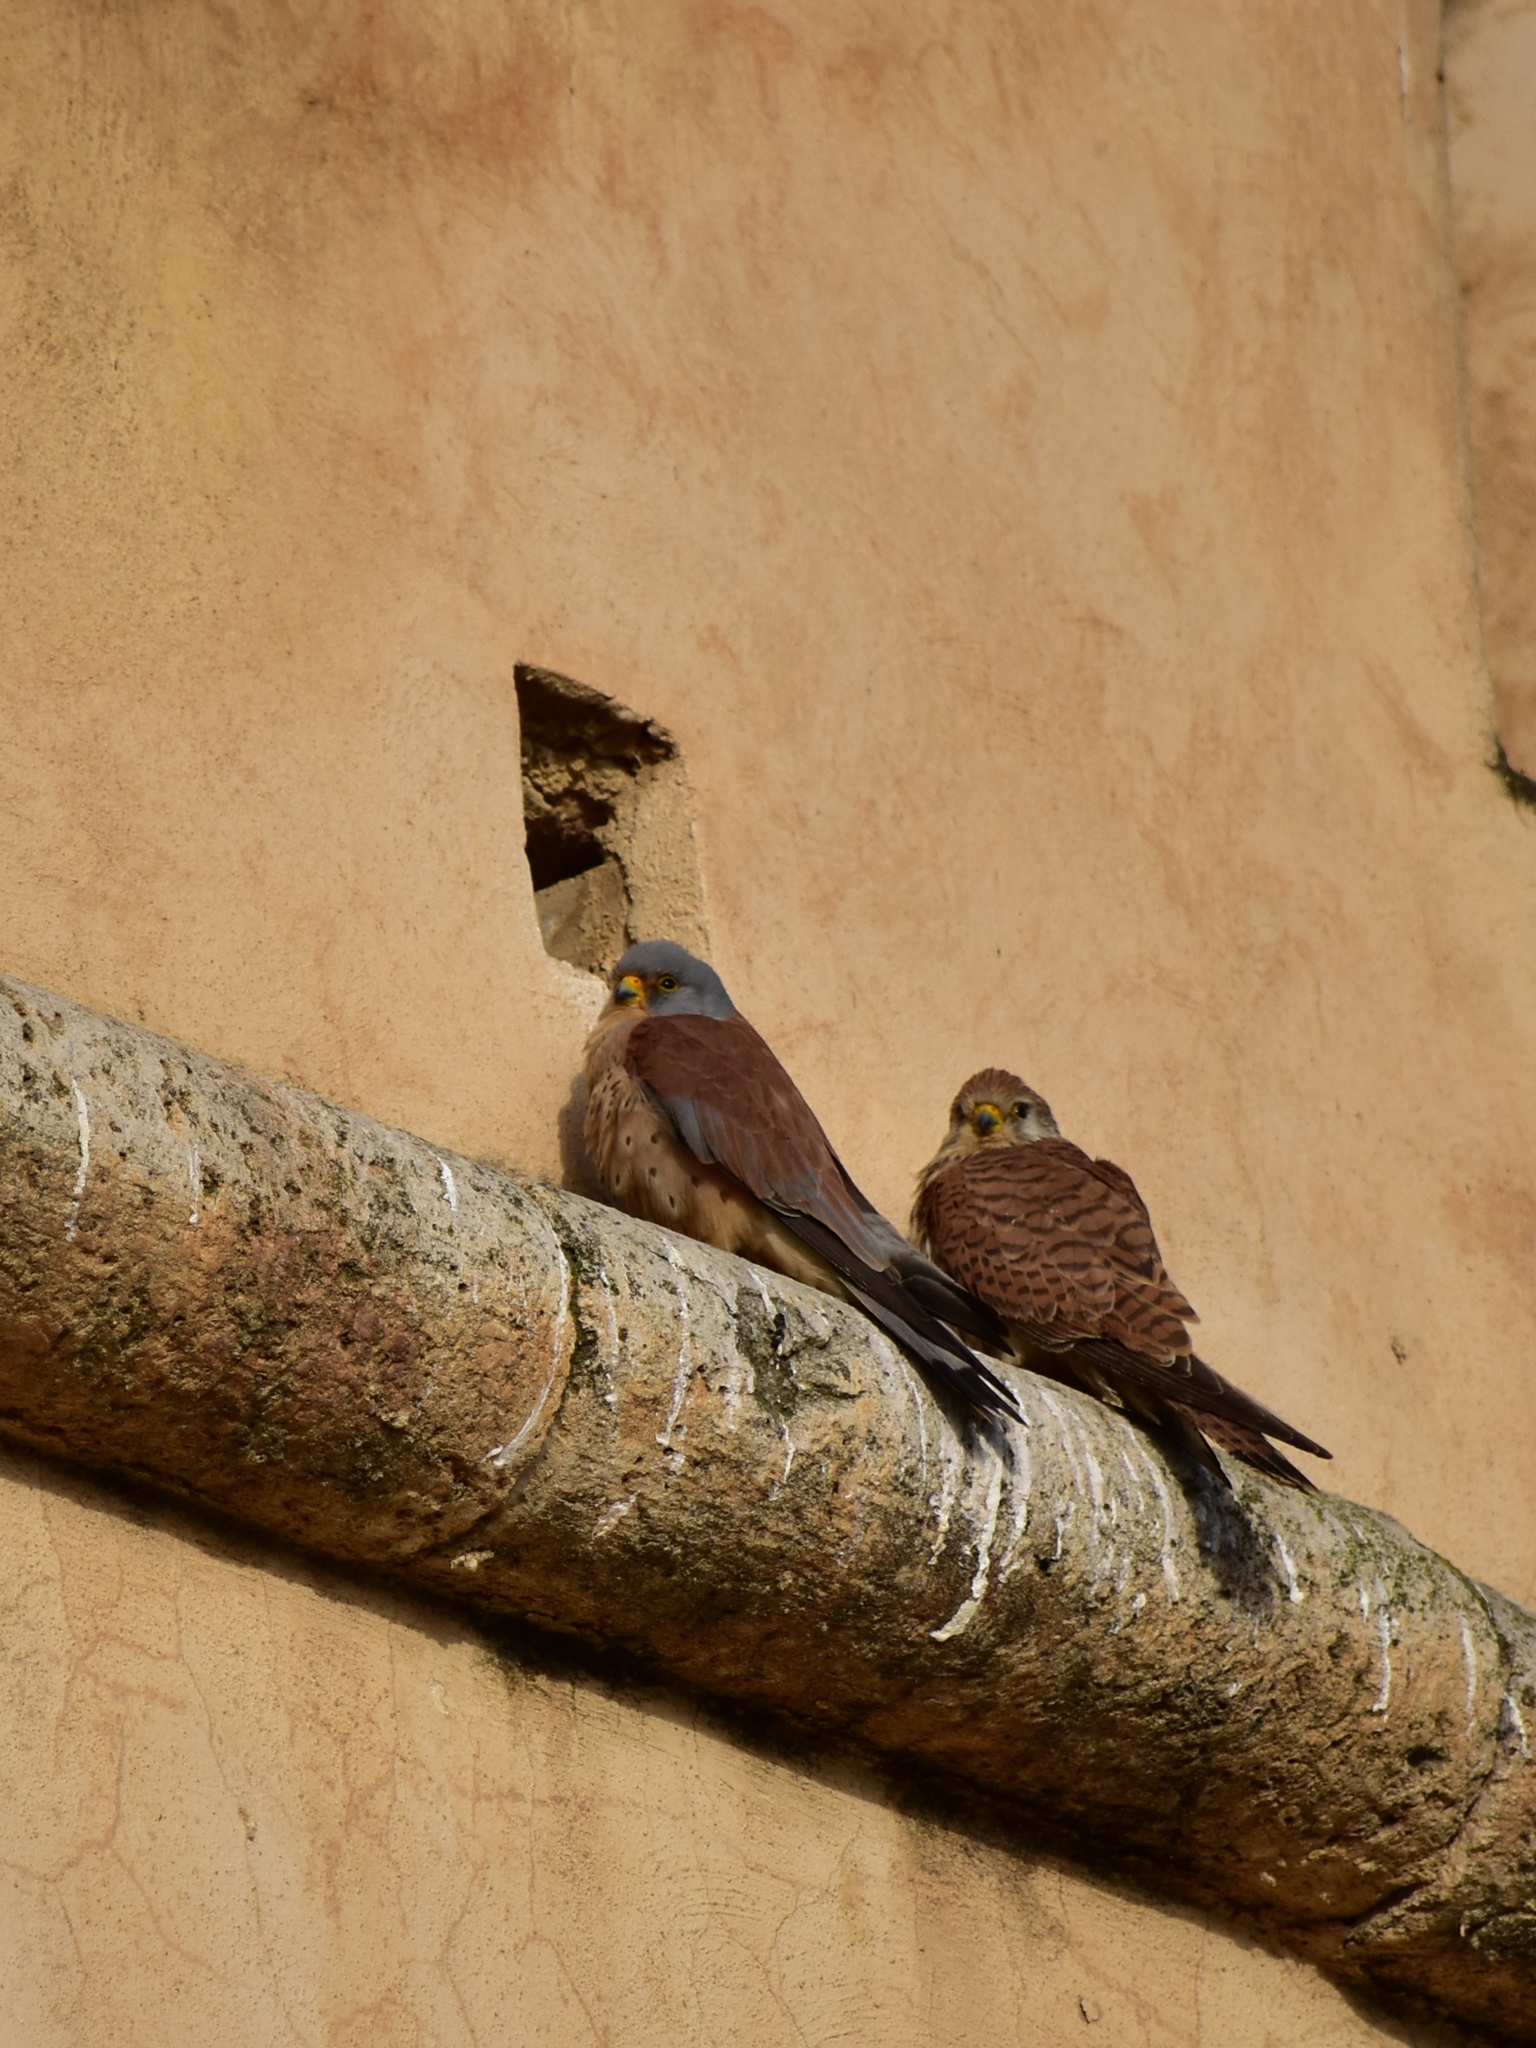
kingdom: Animalia
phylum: Chordata
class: Aves
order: Falconiformes
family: Falconidae
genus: Falco
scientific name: Falco naumanni
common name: Lesser kestrel
